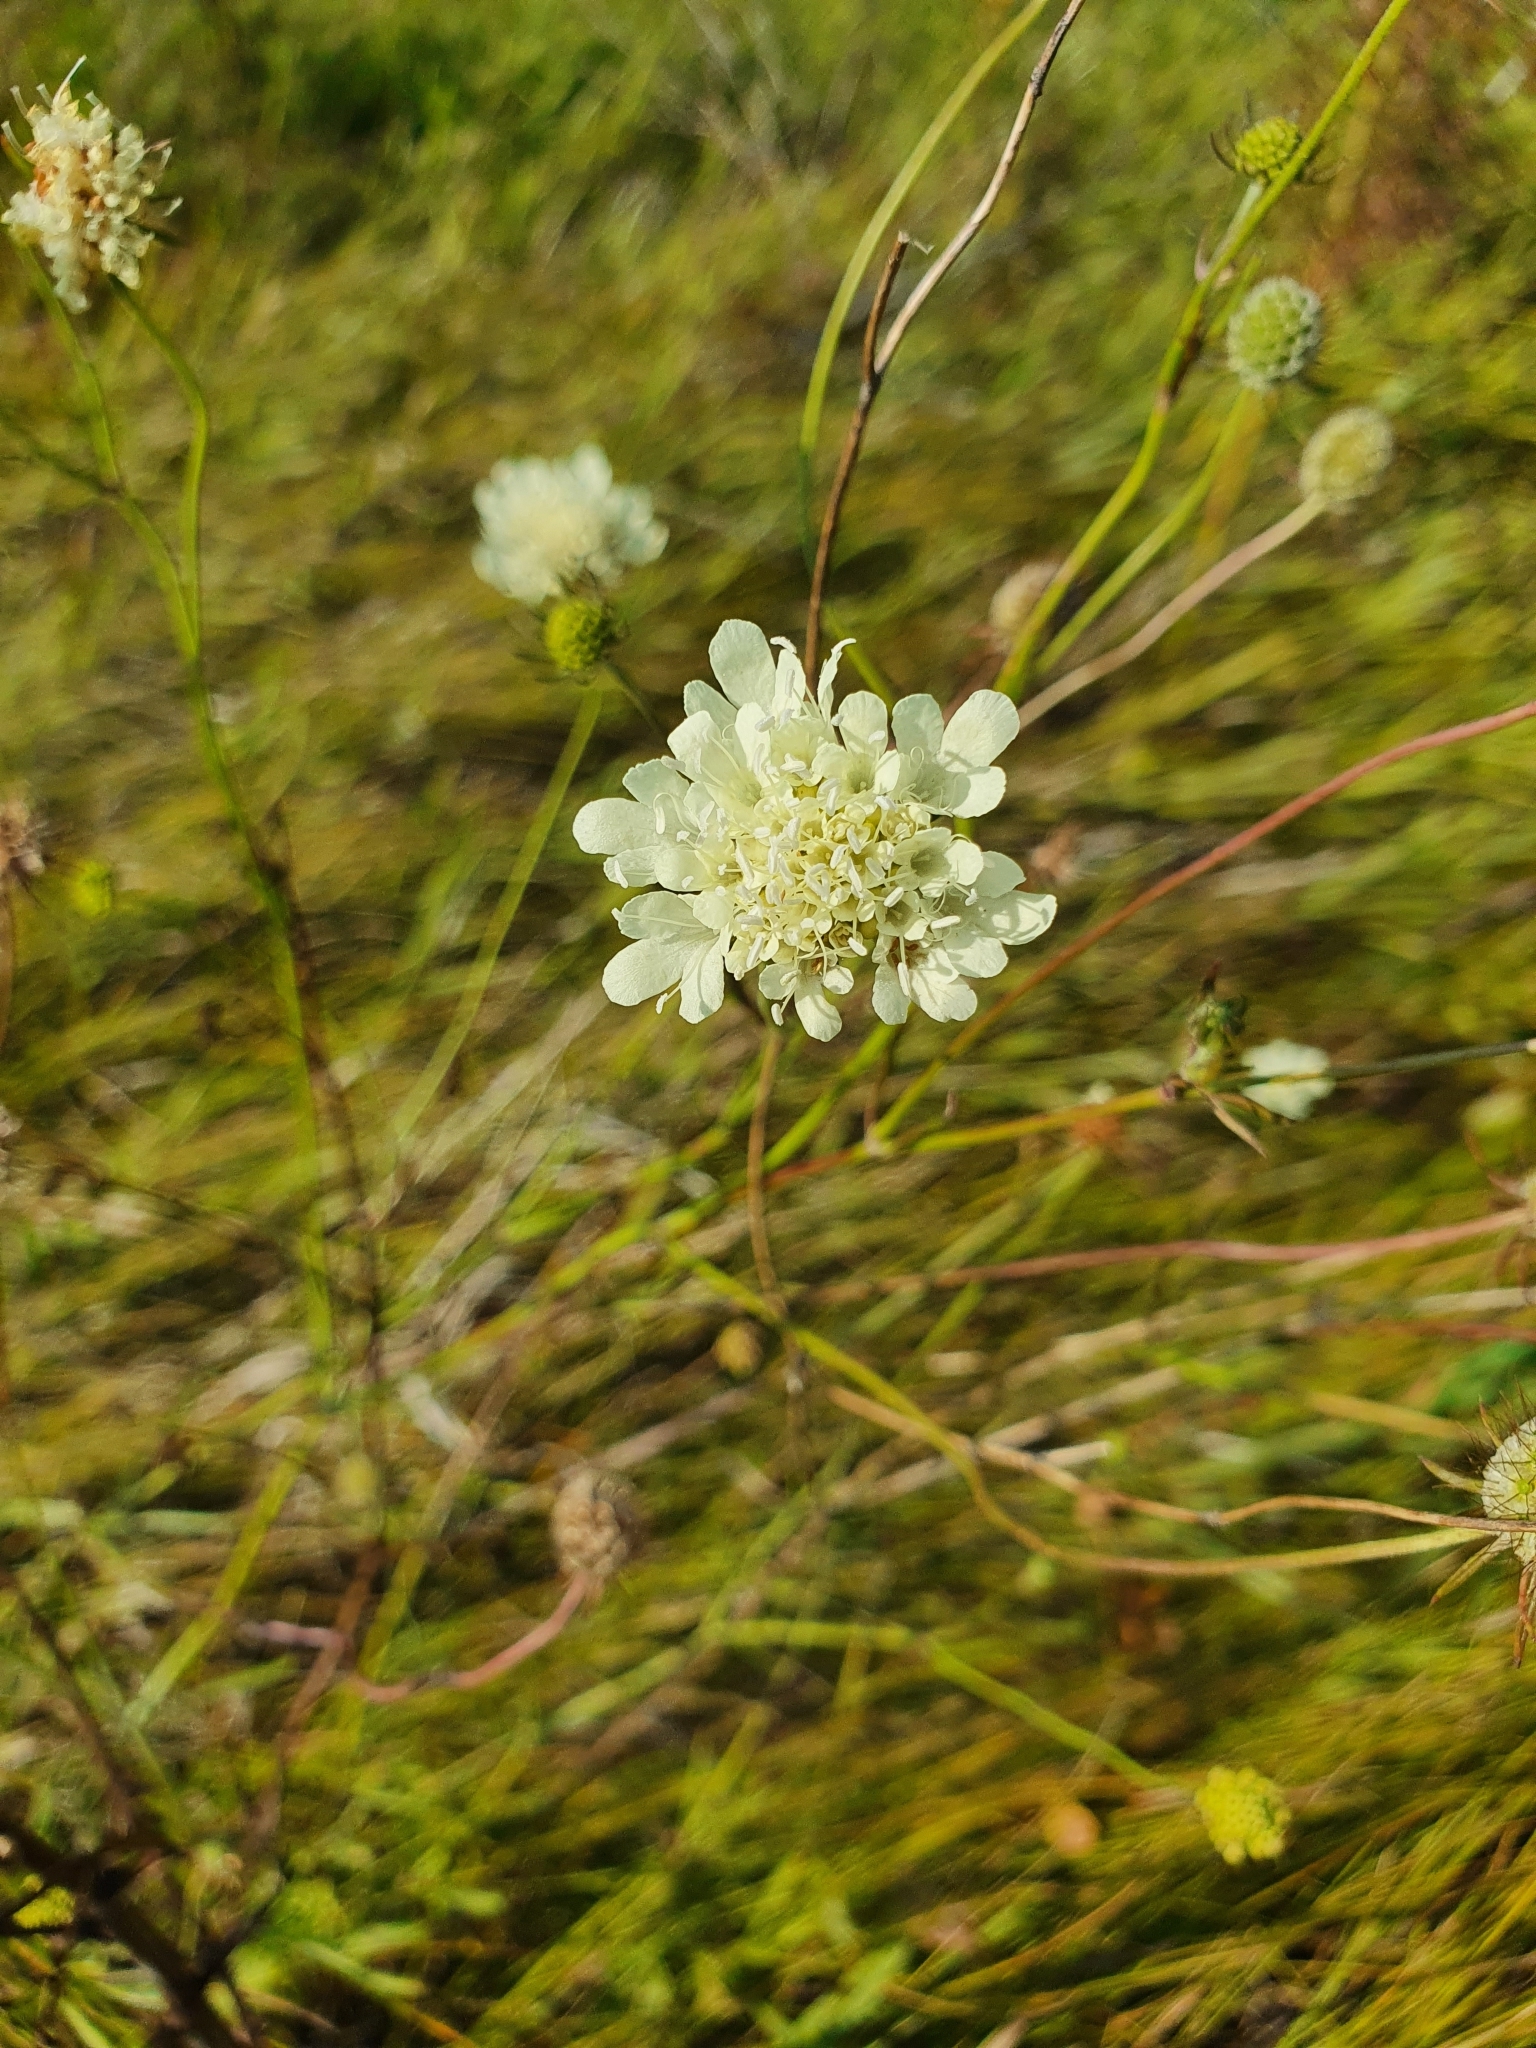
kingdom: Plantae
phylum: Tracheophyta
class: Magnoliopsida
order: Dipsacales
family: Caprifoliaceae
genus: Scabiosa
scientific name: Scabiosa ochroleuca
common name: Cream pincushions
